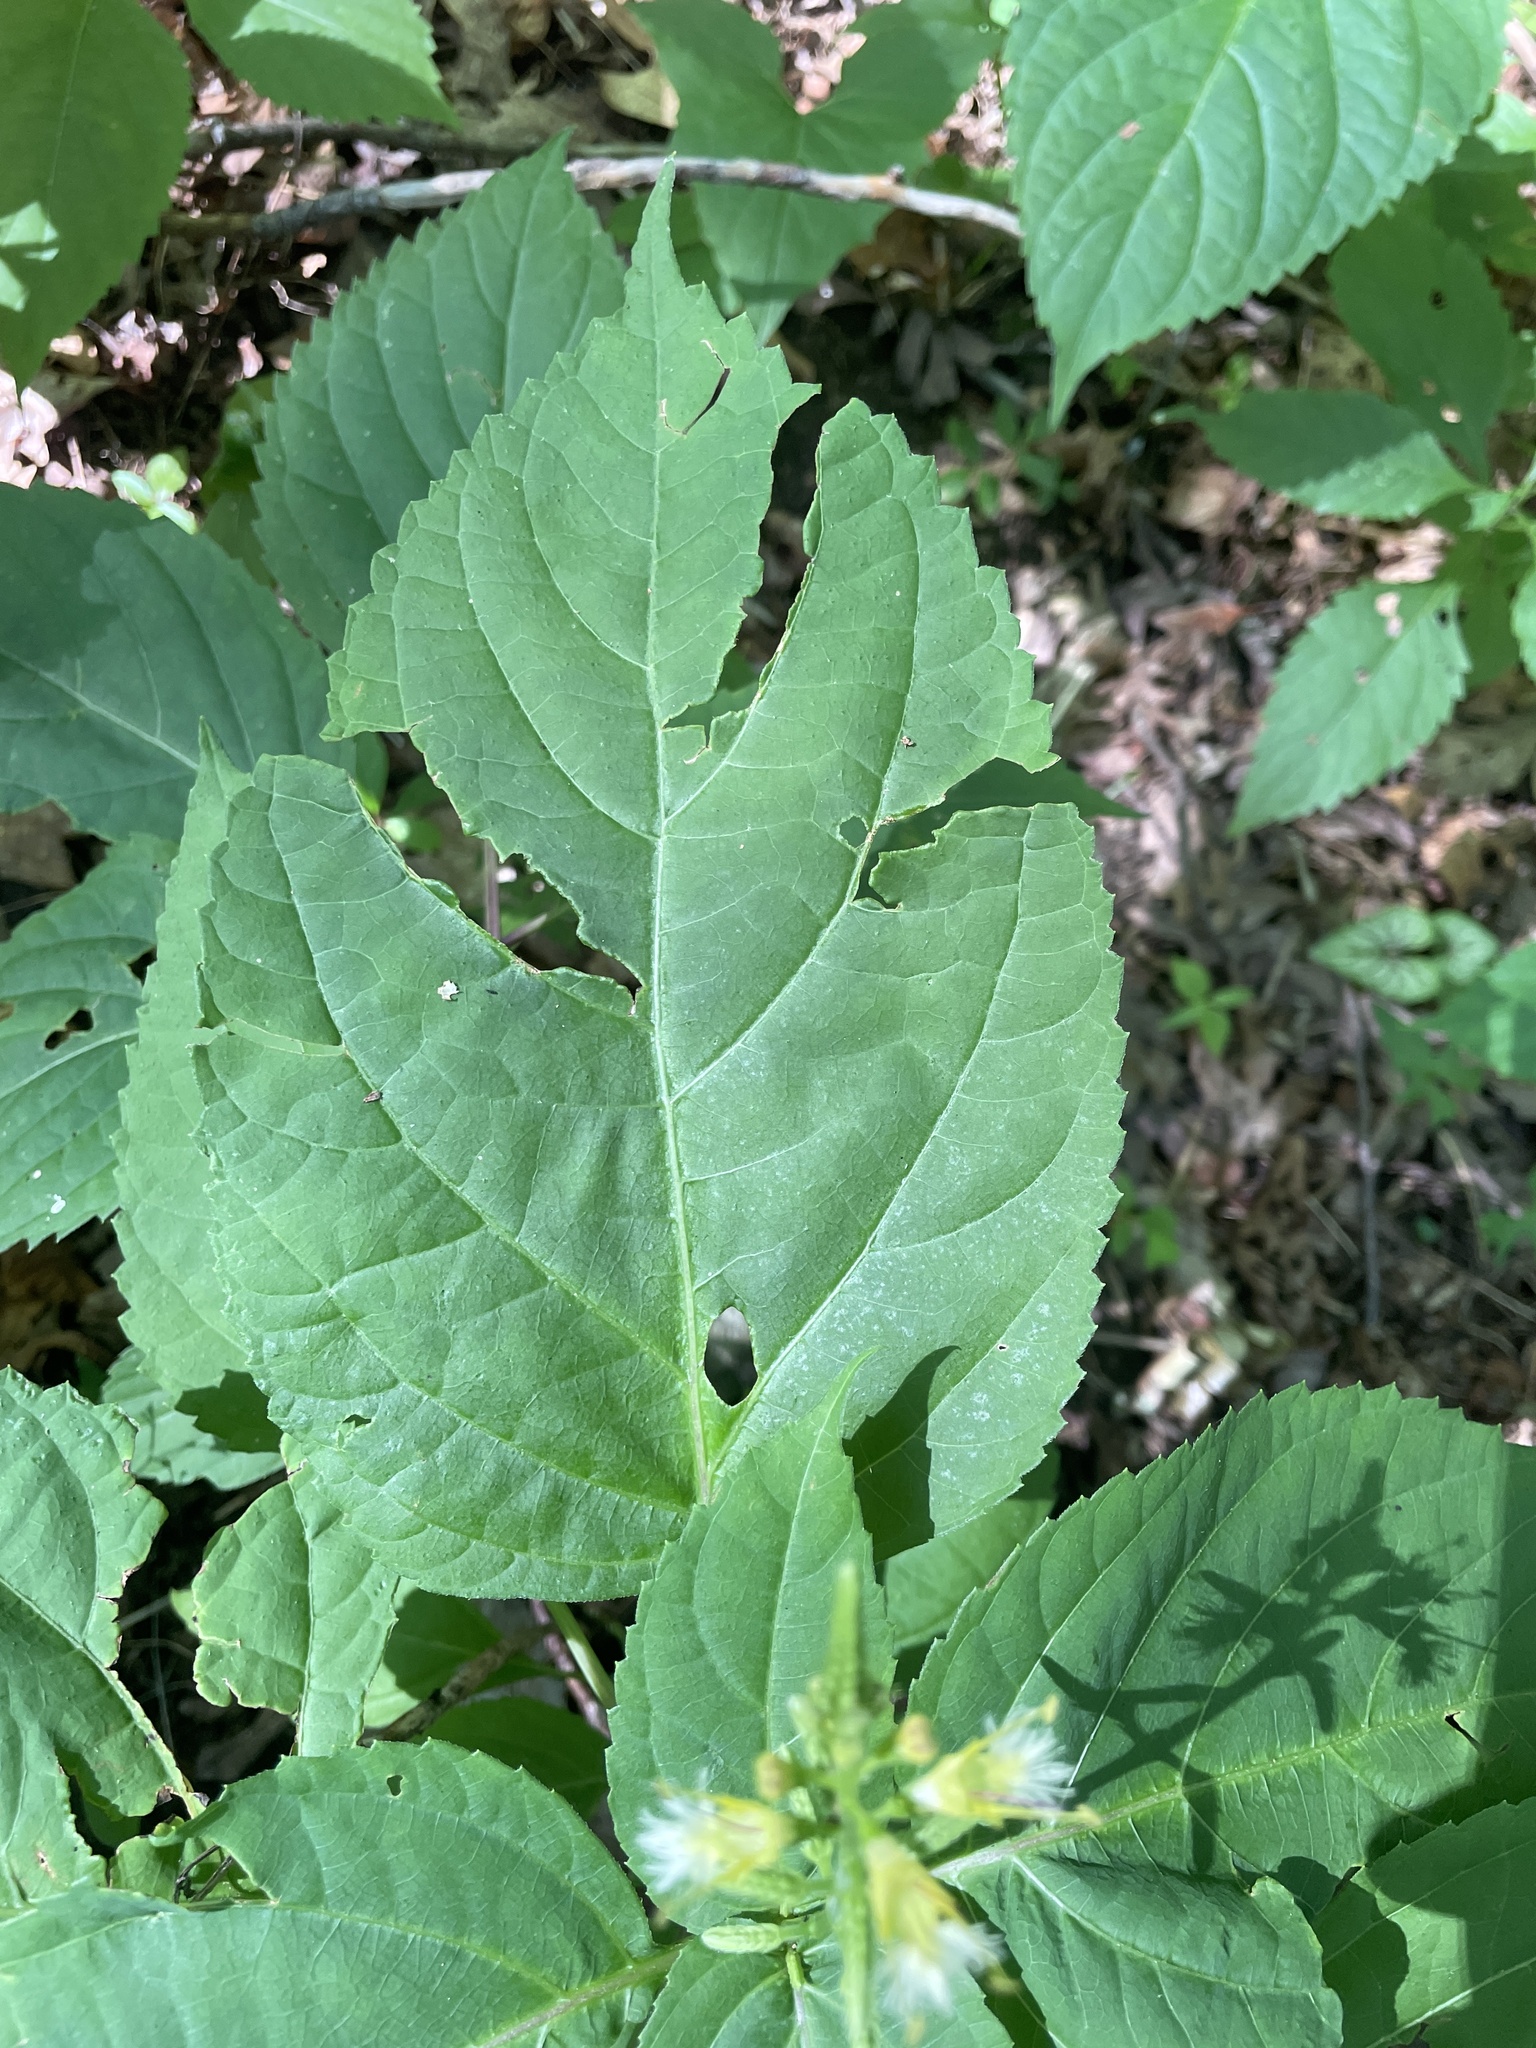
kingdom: Plantae
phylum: Tracheophyta
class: Magnoliopsida
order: Lamiales
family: Lamiaceae
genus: Collinsonia
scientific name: Collinsonia canadensis
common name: Northern horsebalm
